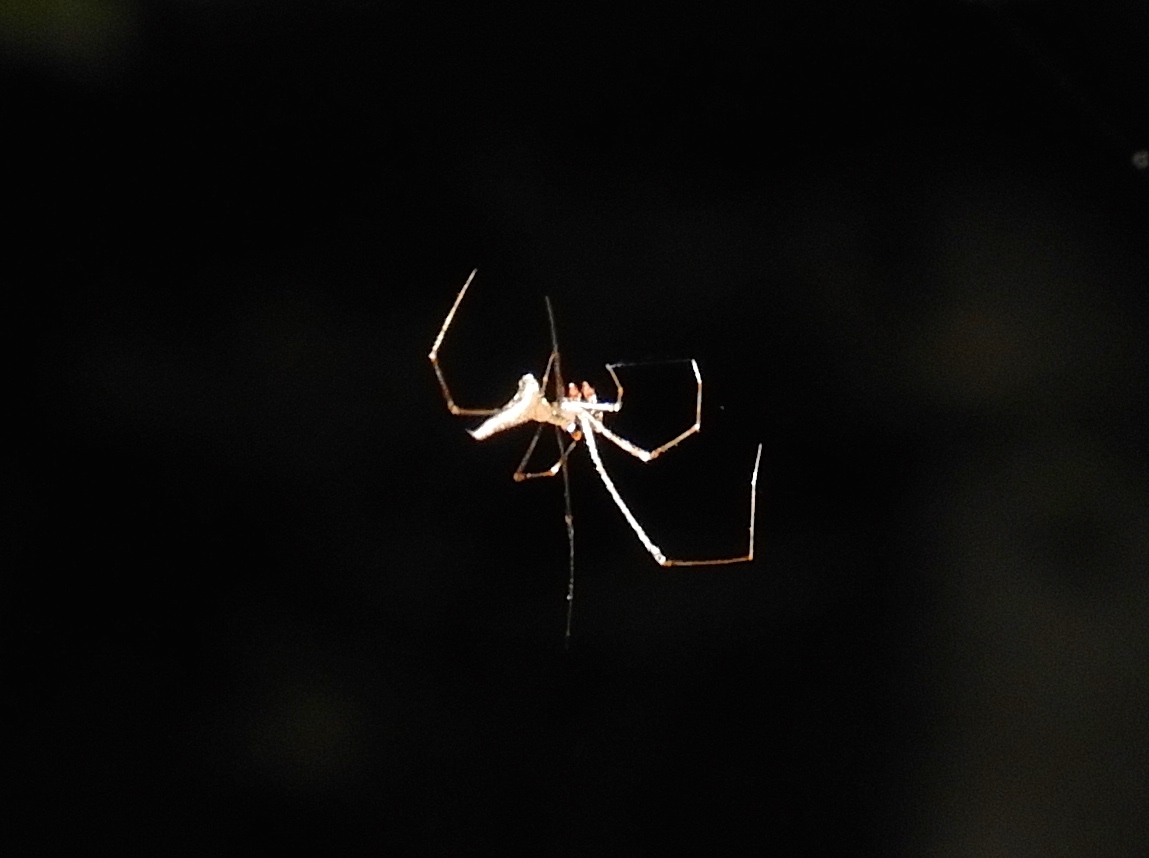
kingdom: Animalia
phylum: Arthropoda
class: Arachnida
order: Araneae
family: Theridiidae
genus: Rhomphaea
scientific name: Rhomphaea
